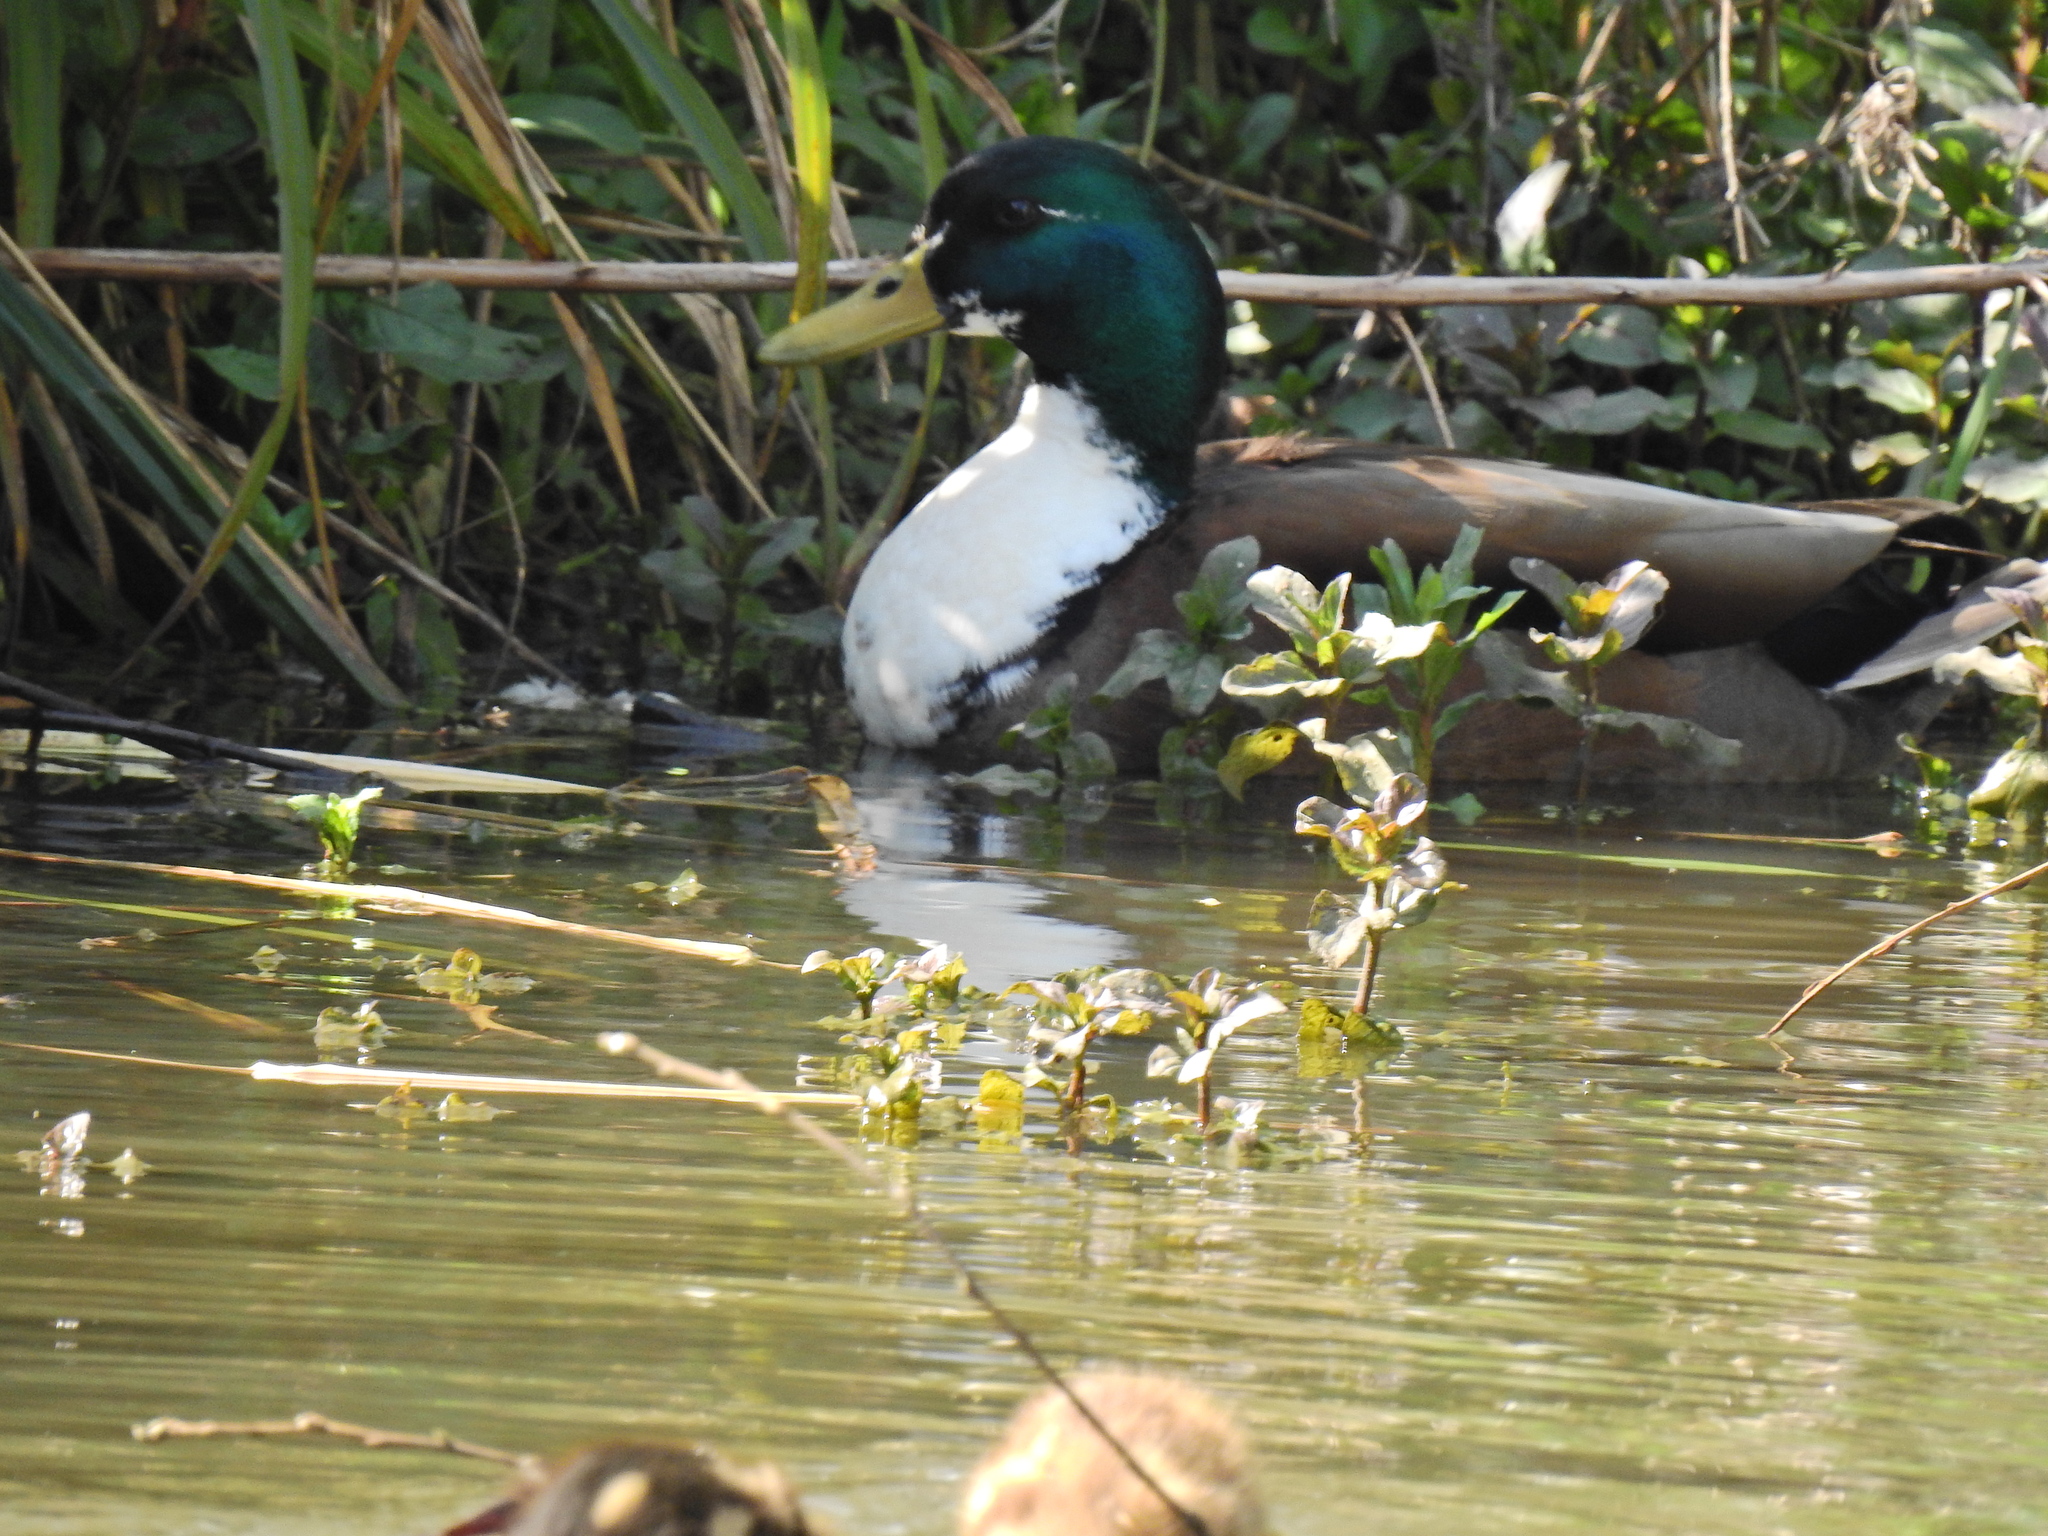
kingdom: Animalia
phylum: Chordata
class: Aves
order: Anseriformes
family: Anatidae
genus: Anas
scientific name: Anas platyrhynchos
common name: Mallard
